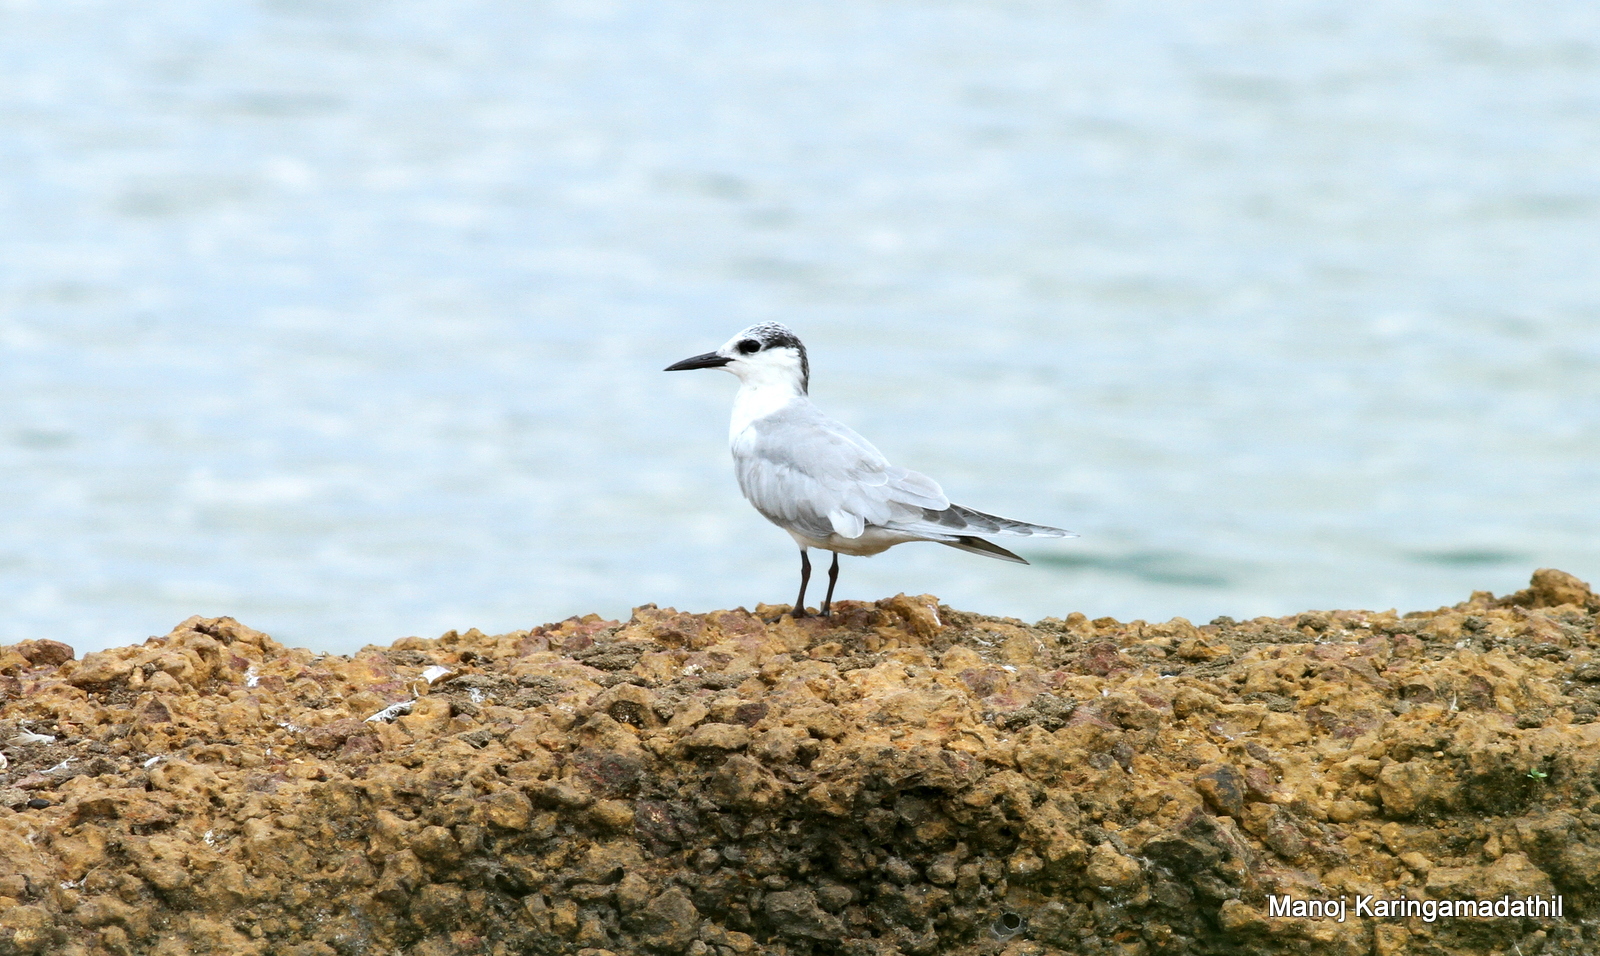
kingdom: Animalia
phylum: Chordata
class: Aves
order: Charadriiformes
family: Laridae
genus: Chlidonias
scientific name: Chlidonias hybrida
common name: Whiskered tern
